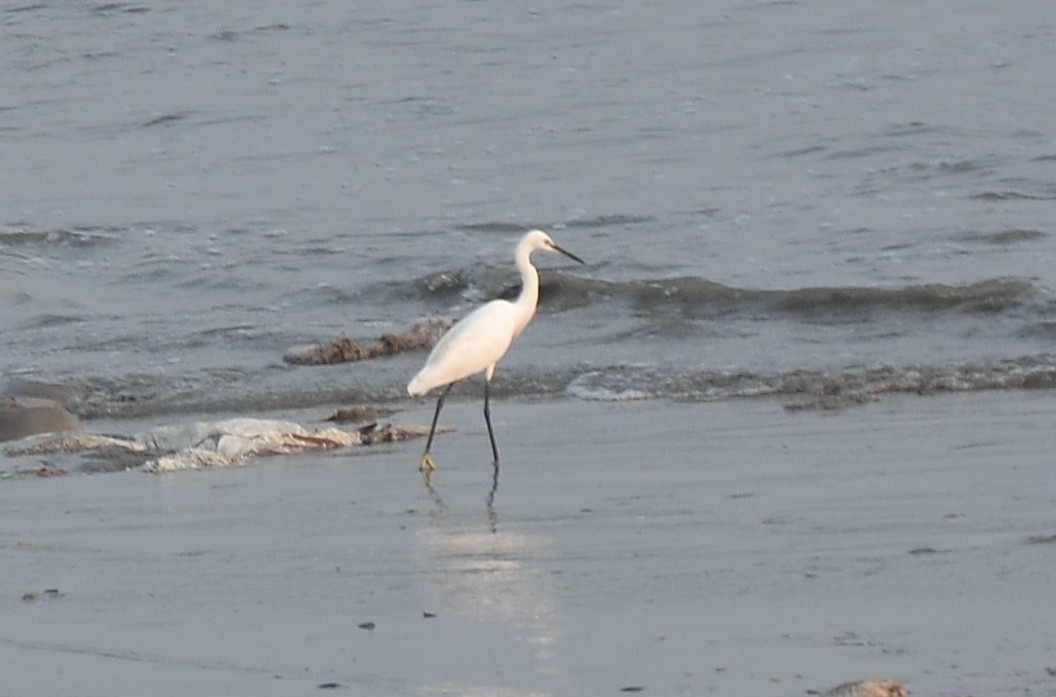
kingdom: Animalia
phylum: Chordata
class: Aves
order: Pelecaniformes
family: Ardeidae
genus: Egretta
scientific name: Egretta garzetta
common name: Little egret
